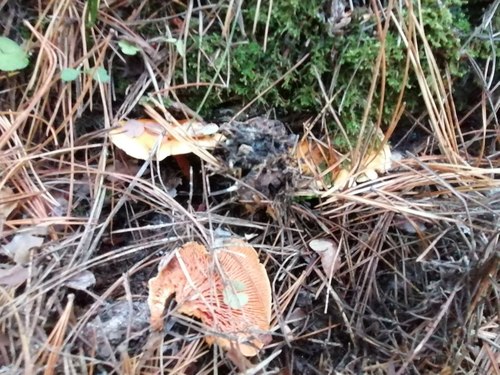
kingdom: Fungi
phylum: Basidiomycota
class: Agaricomycetes
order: Boletales
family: Hygrophoropsidaceae
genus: Hygrophoropsis
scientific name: Hygrophoropsis aurantiaca
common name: False chanterelle
